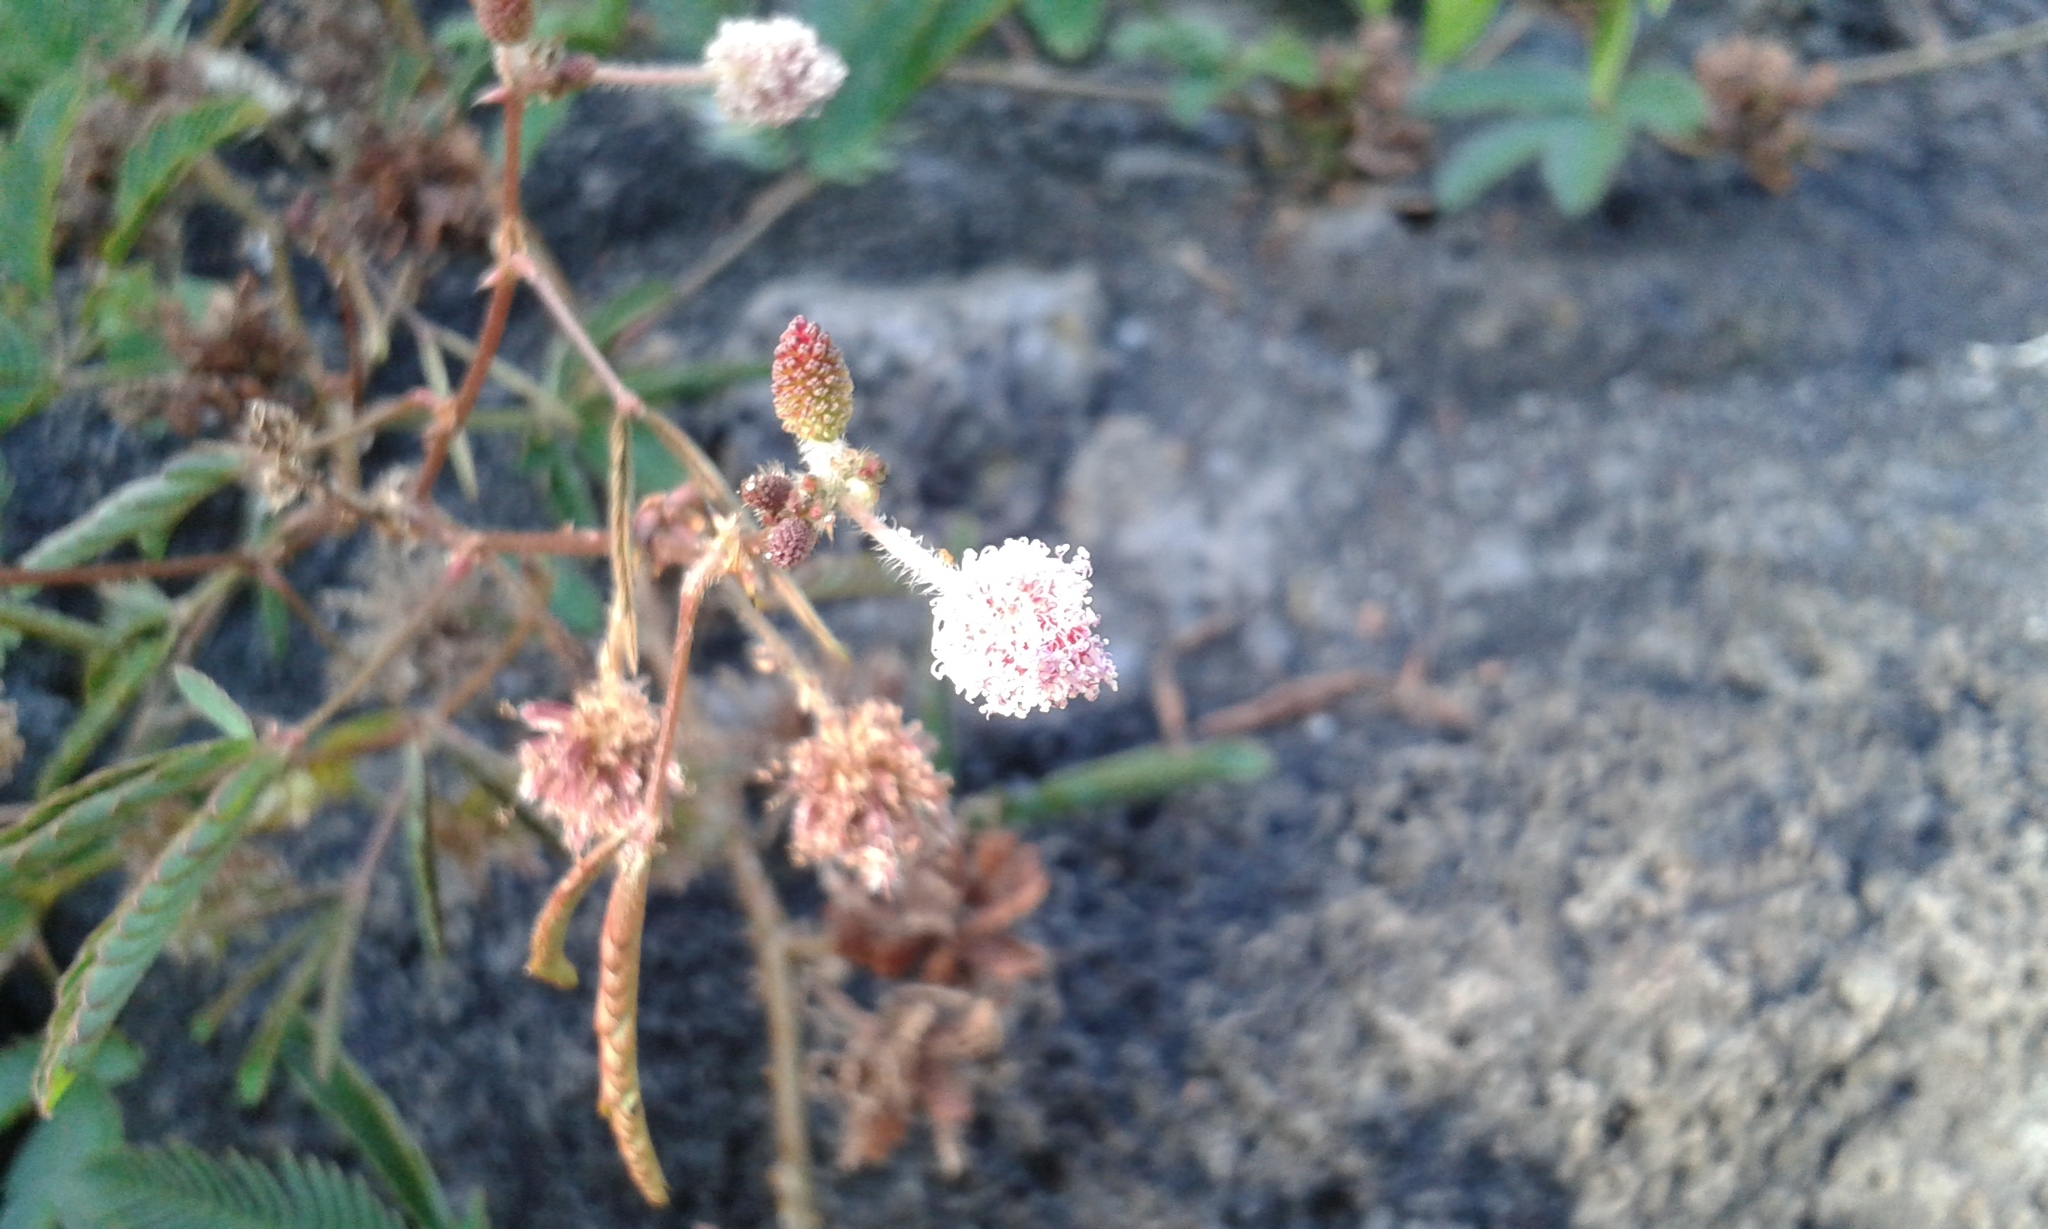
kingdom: Plantae
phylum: Tracheophyta
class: Magnoliopsida
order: Fabales
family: Fabaceae
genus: Mimosa
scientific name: Mimosa pudica
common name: Sensitive plant
